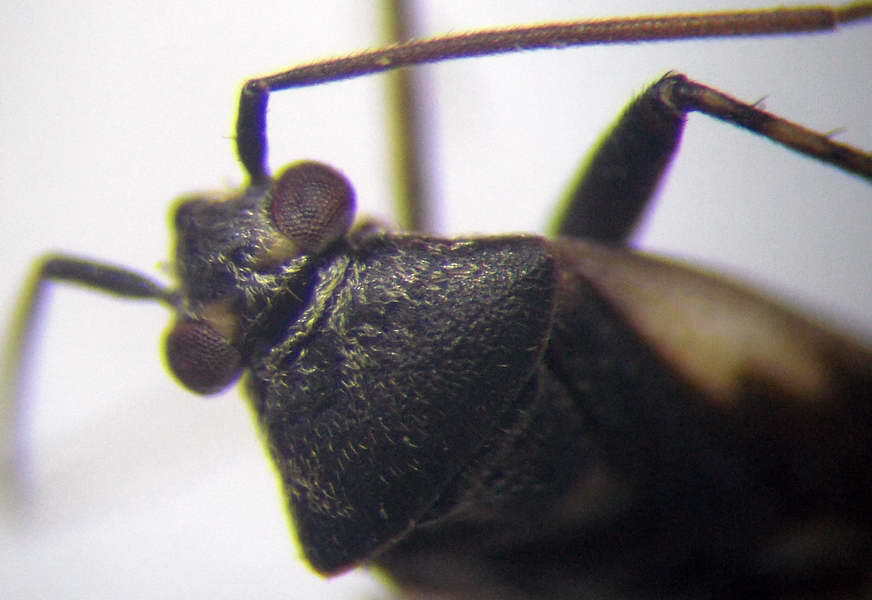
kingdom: Animalia
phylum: Arthropoda
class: Insecta
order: Hemiptera
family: Miridae
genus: Polymerus
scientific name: Polymerus cognatus
